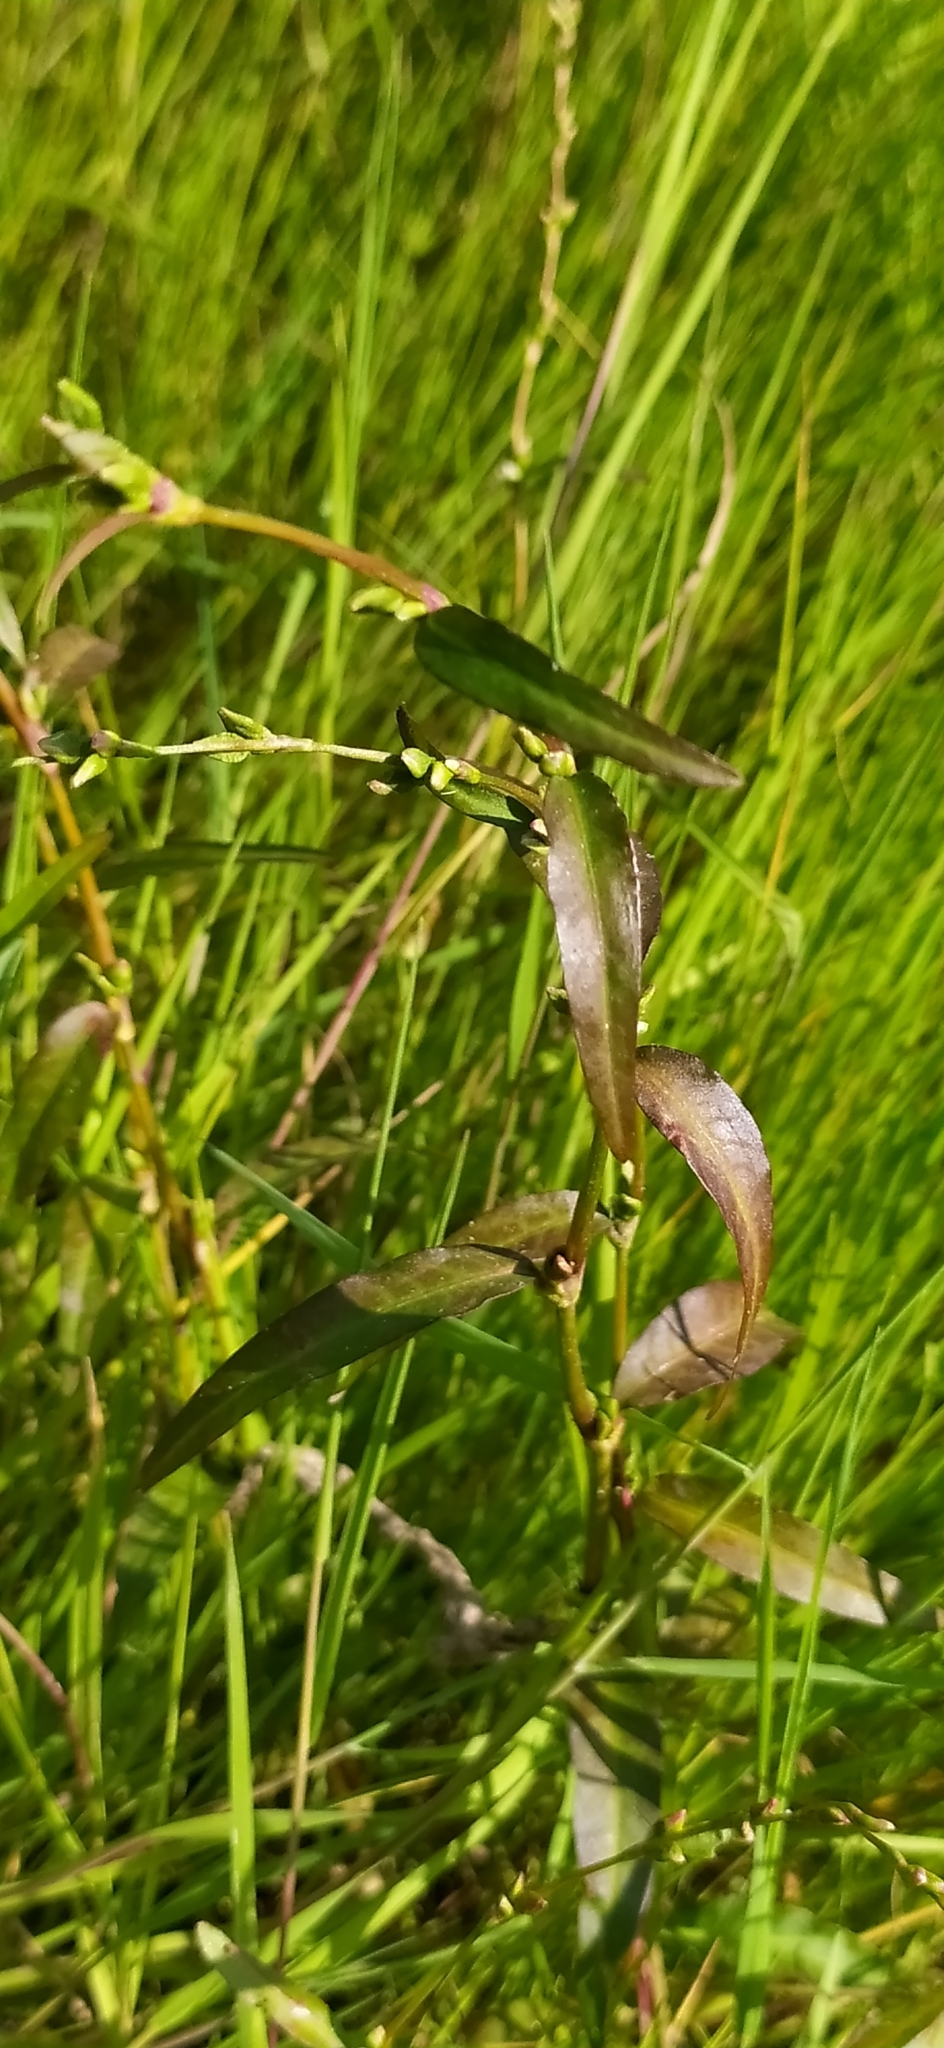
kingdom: Plantae
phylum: Tracheophyta
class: Magnoliopsida
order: Caryophyllales
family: Polygonaceae
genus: Persicaria
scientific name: Persicaria hydropiper
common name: Water-pepper
